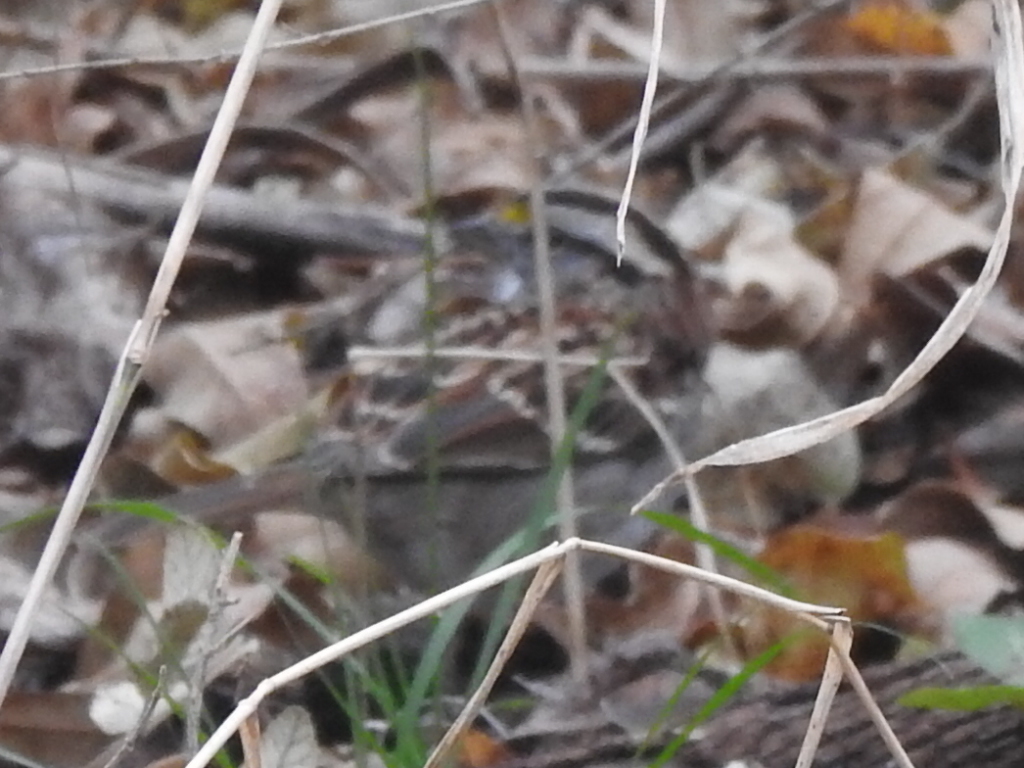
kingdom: Animalia
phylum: Chordata
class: Aves
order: Passeriformes
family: Passerellidae
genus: Zonotrichia
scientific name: Zonotrichia albicollis
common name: White-throated sparrow
